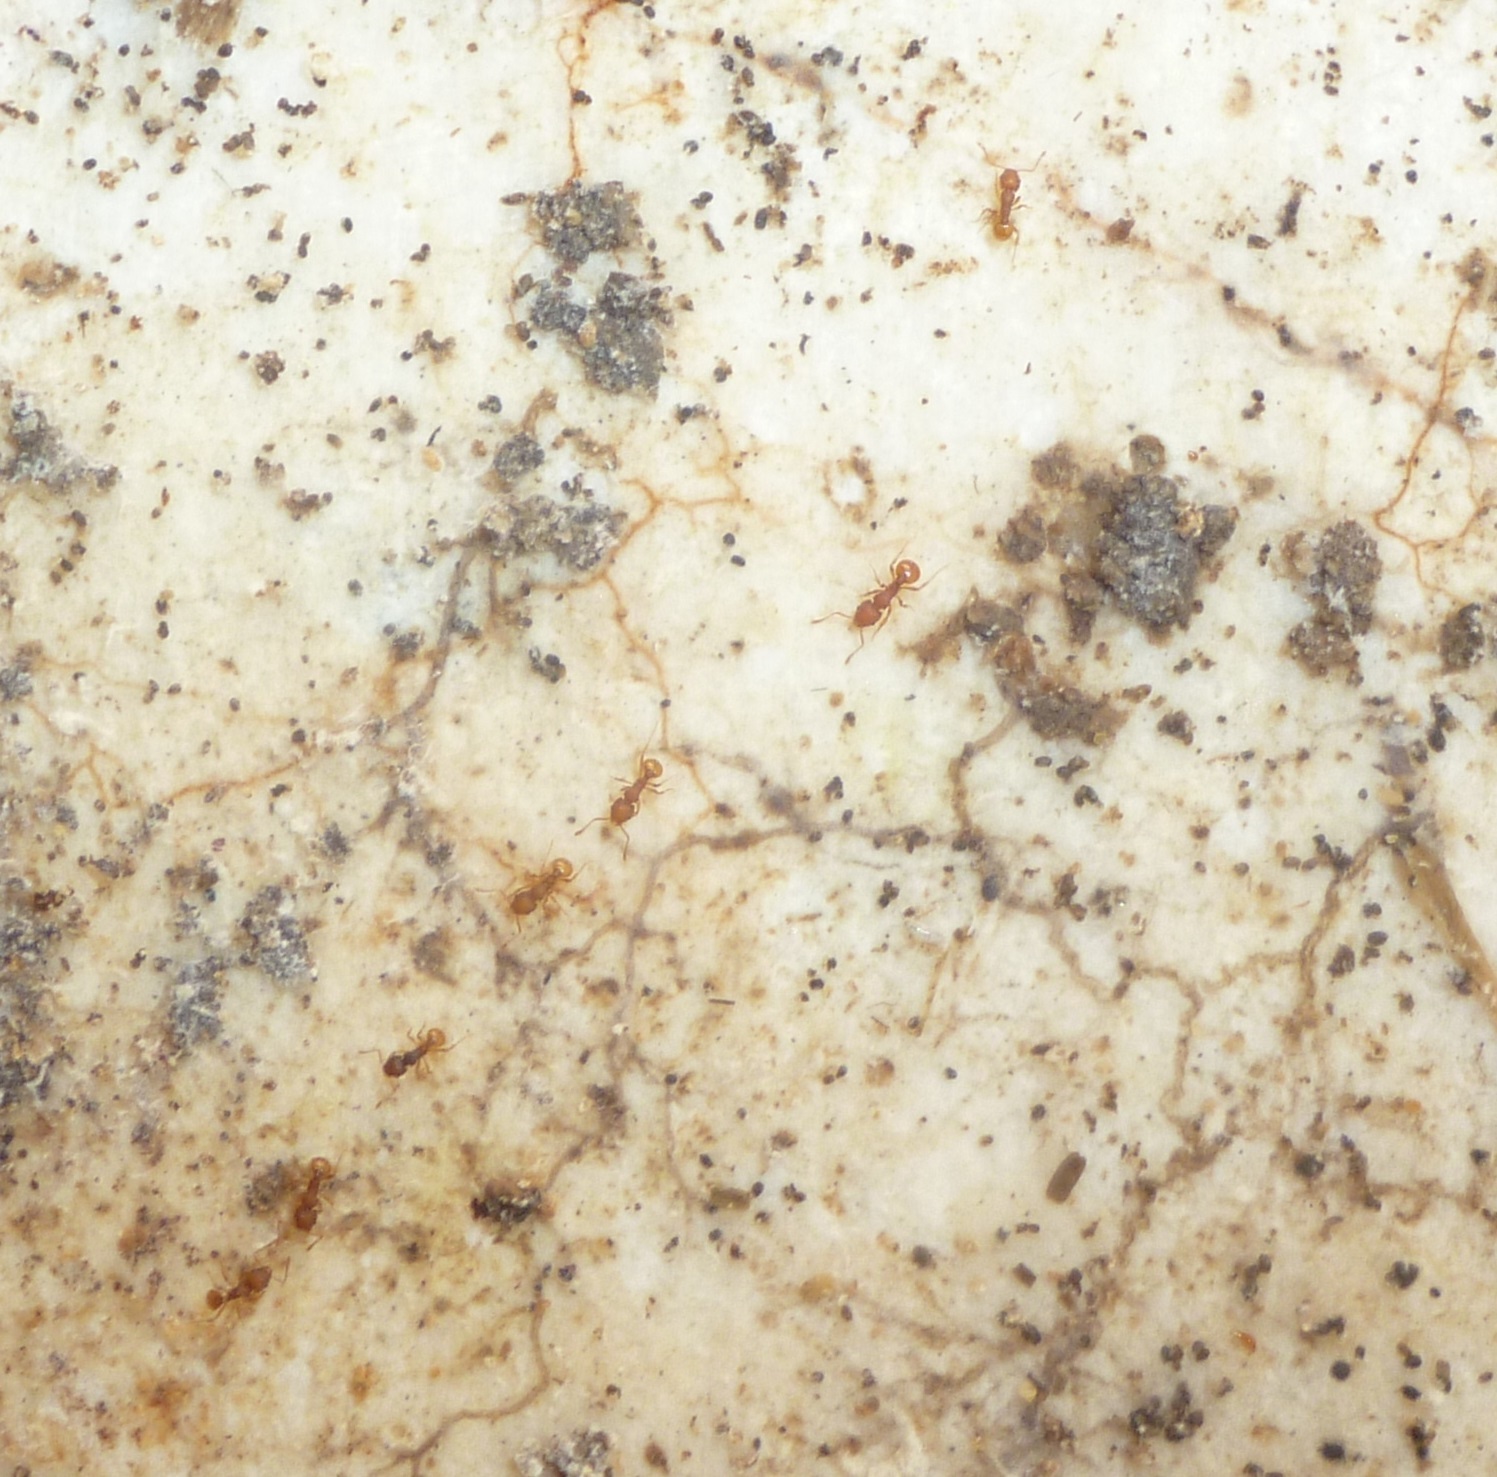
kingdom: Animalia
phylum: Arthropoda
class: Insecta
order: Hymenoptera
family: Formicidae
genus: Wasmannia
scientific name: Wasmannia auropunctata
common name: Little fire ant
